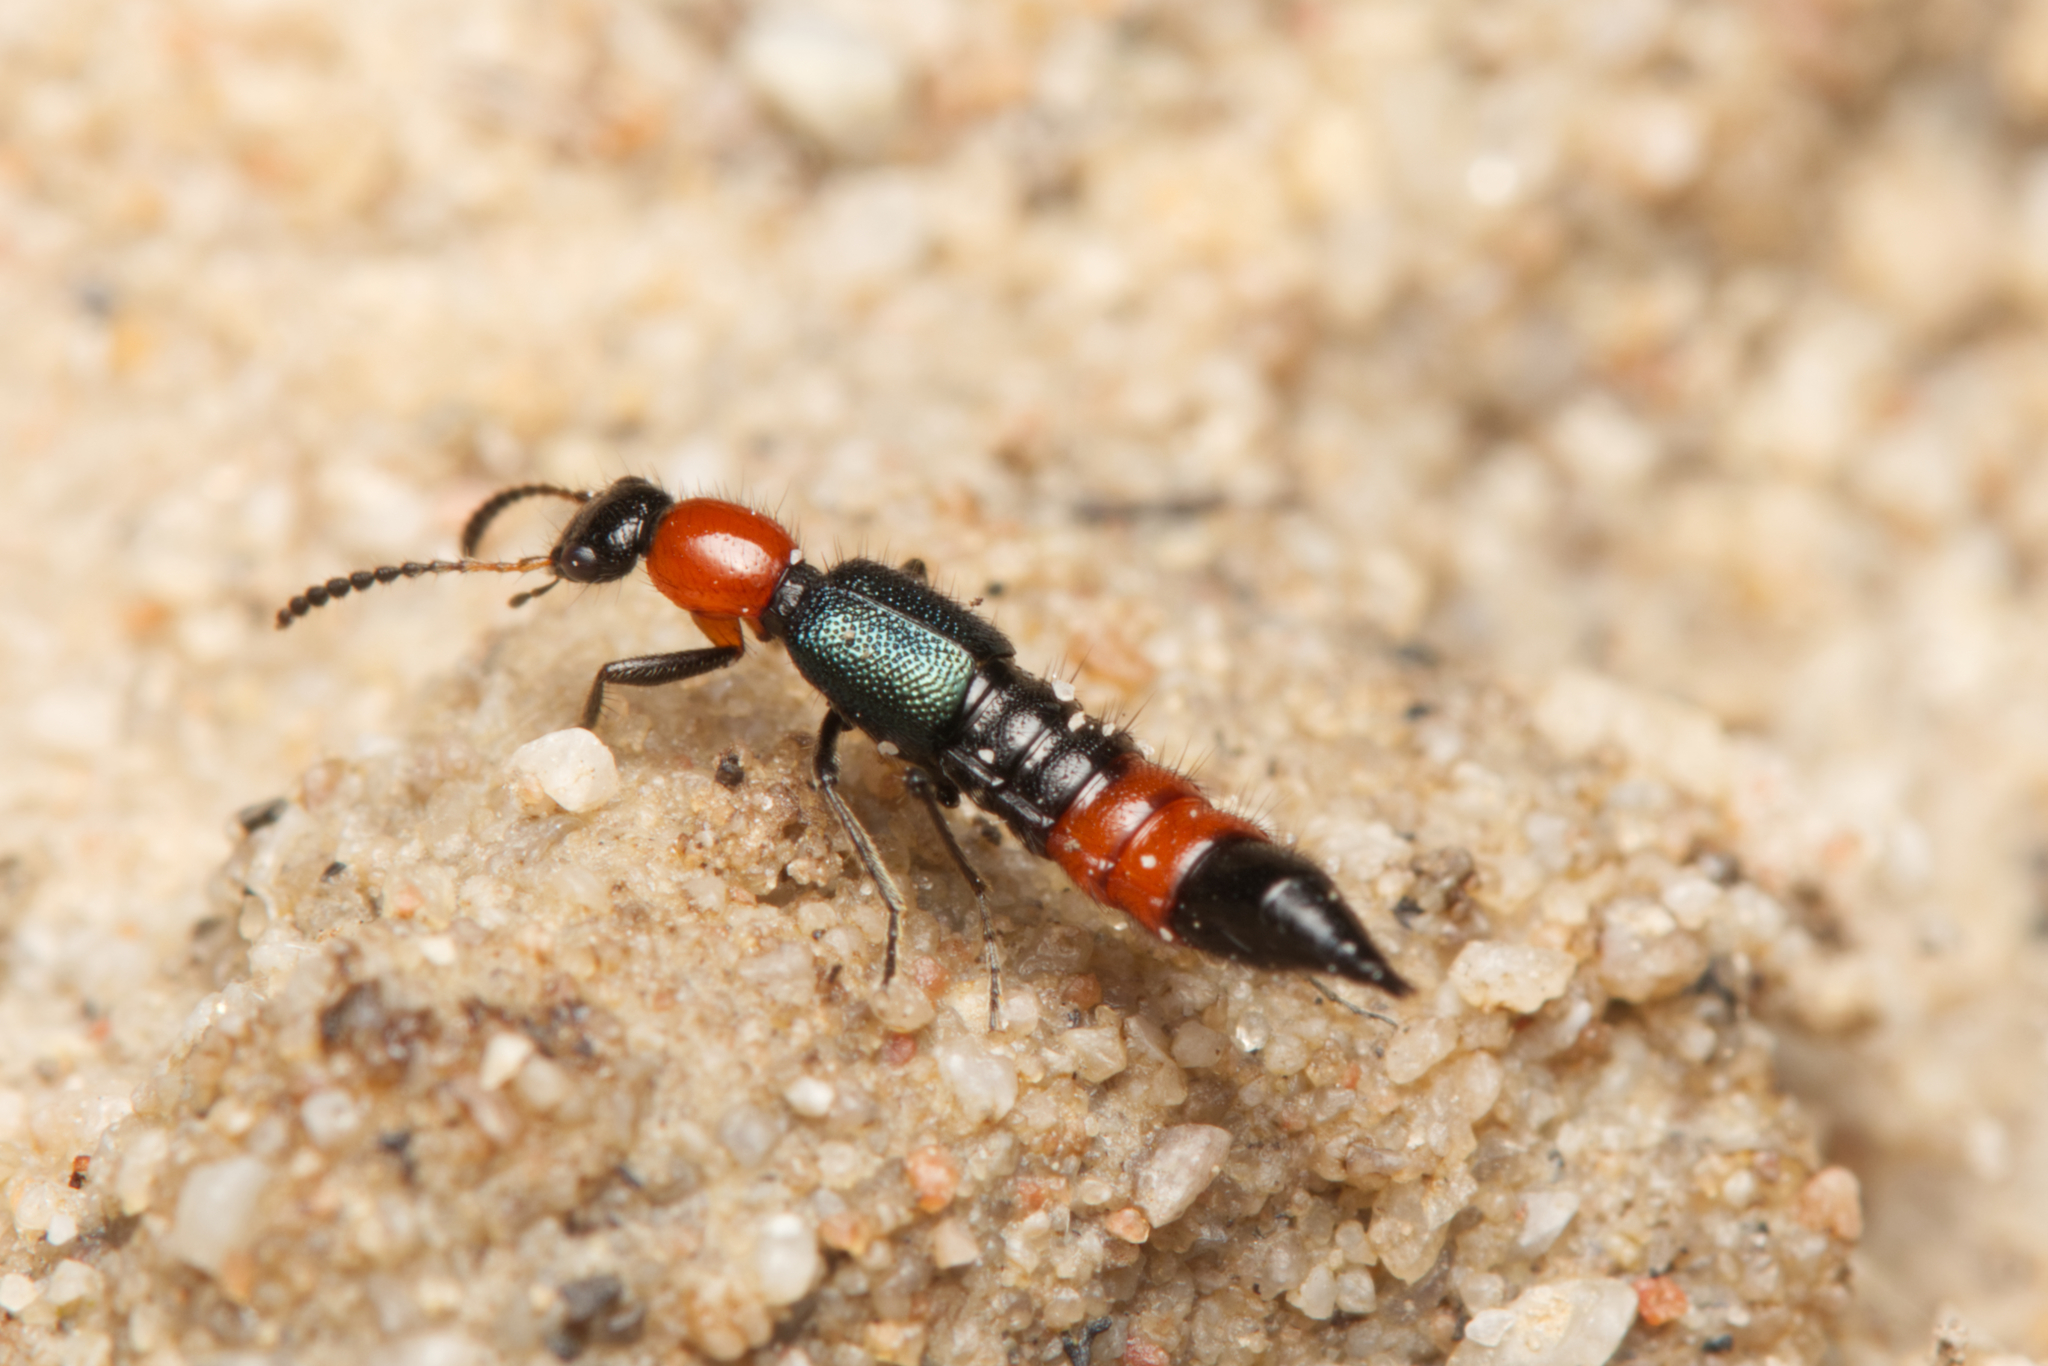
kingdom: Animalia
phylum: Arthropoda
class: Insecta
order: Coleoptera
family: Staphylinidae
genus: Paederus
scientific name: Paederus cruenticollis
